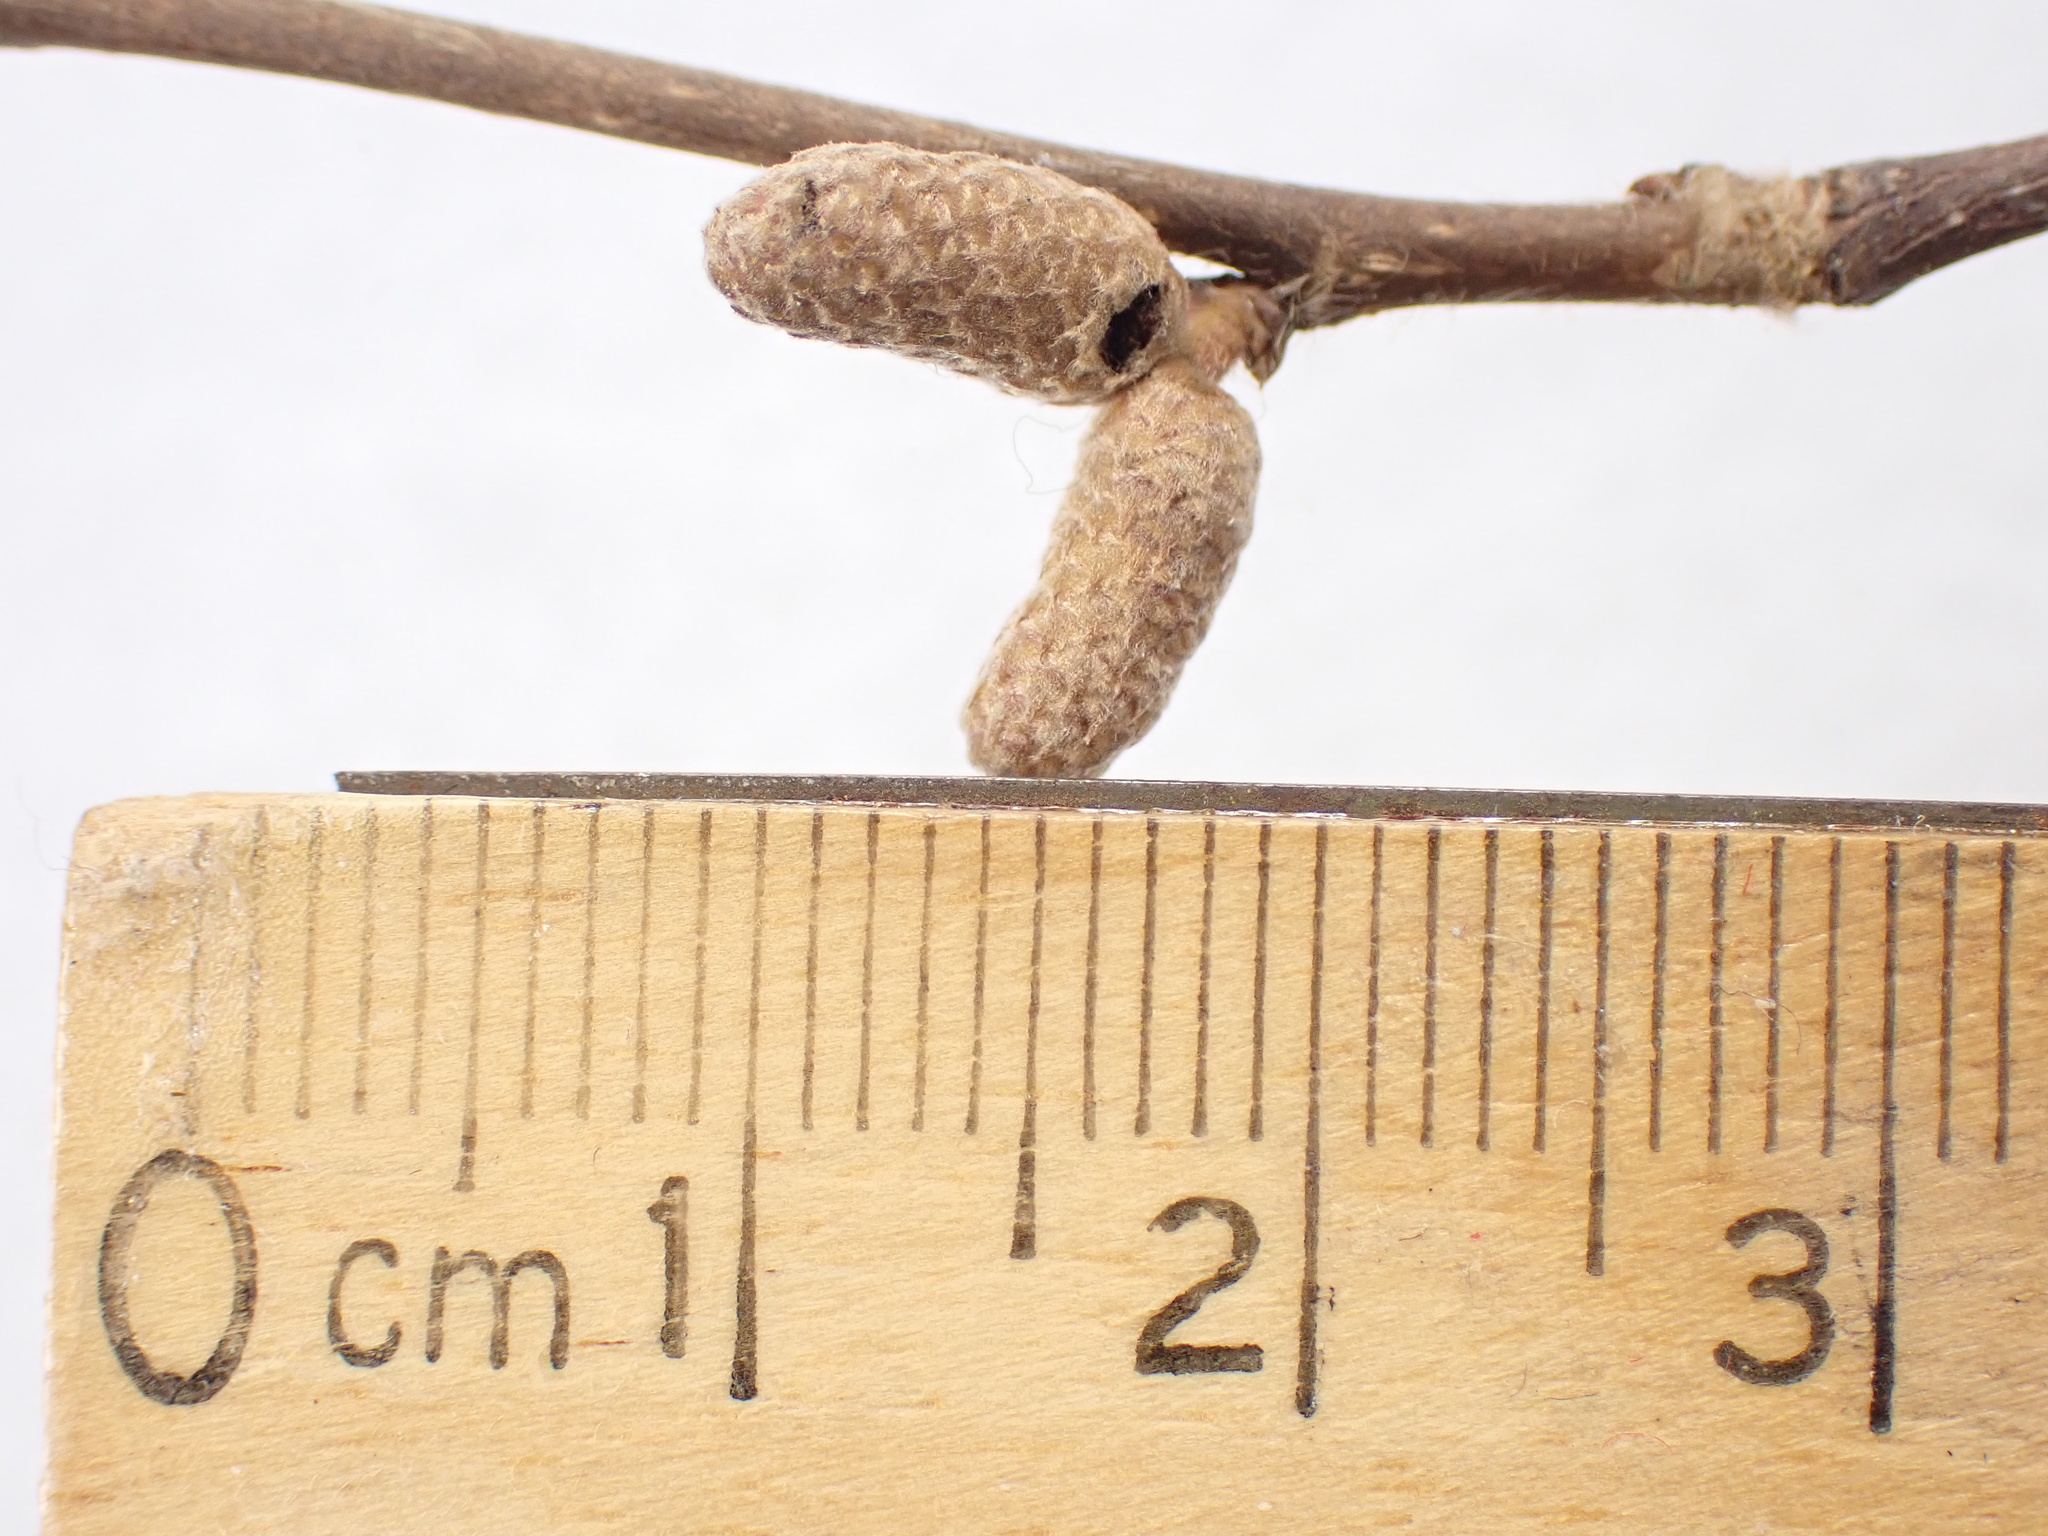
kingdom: Plantae
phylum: Tracheophyta
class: Magnoliopsida
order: Fagales
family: Betulaceae
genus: Corylus
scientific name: Corylus cornuta
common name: Beaked hazel
